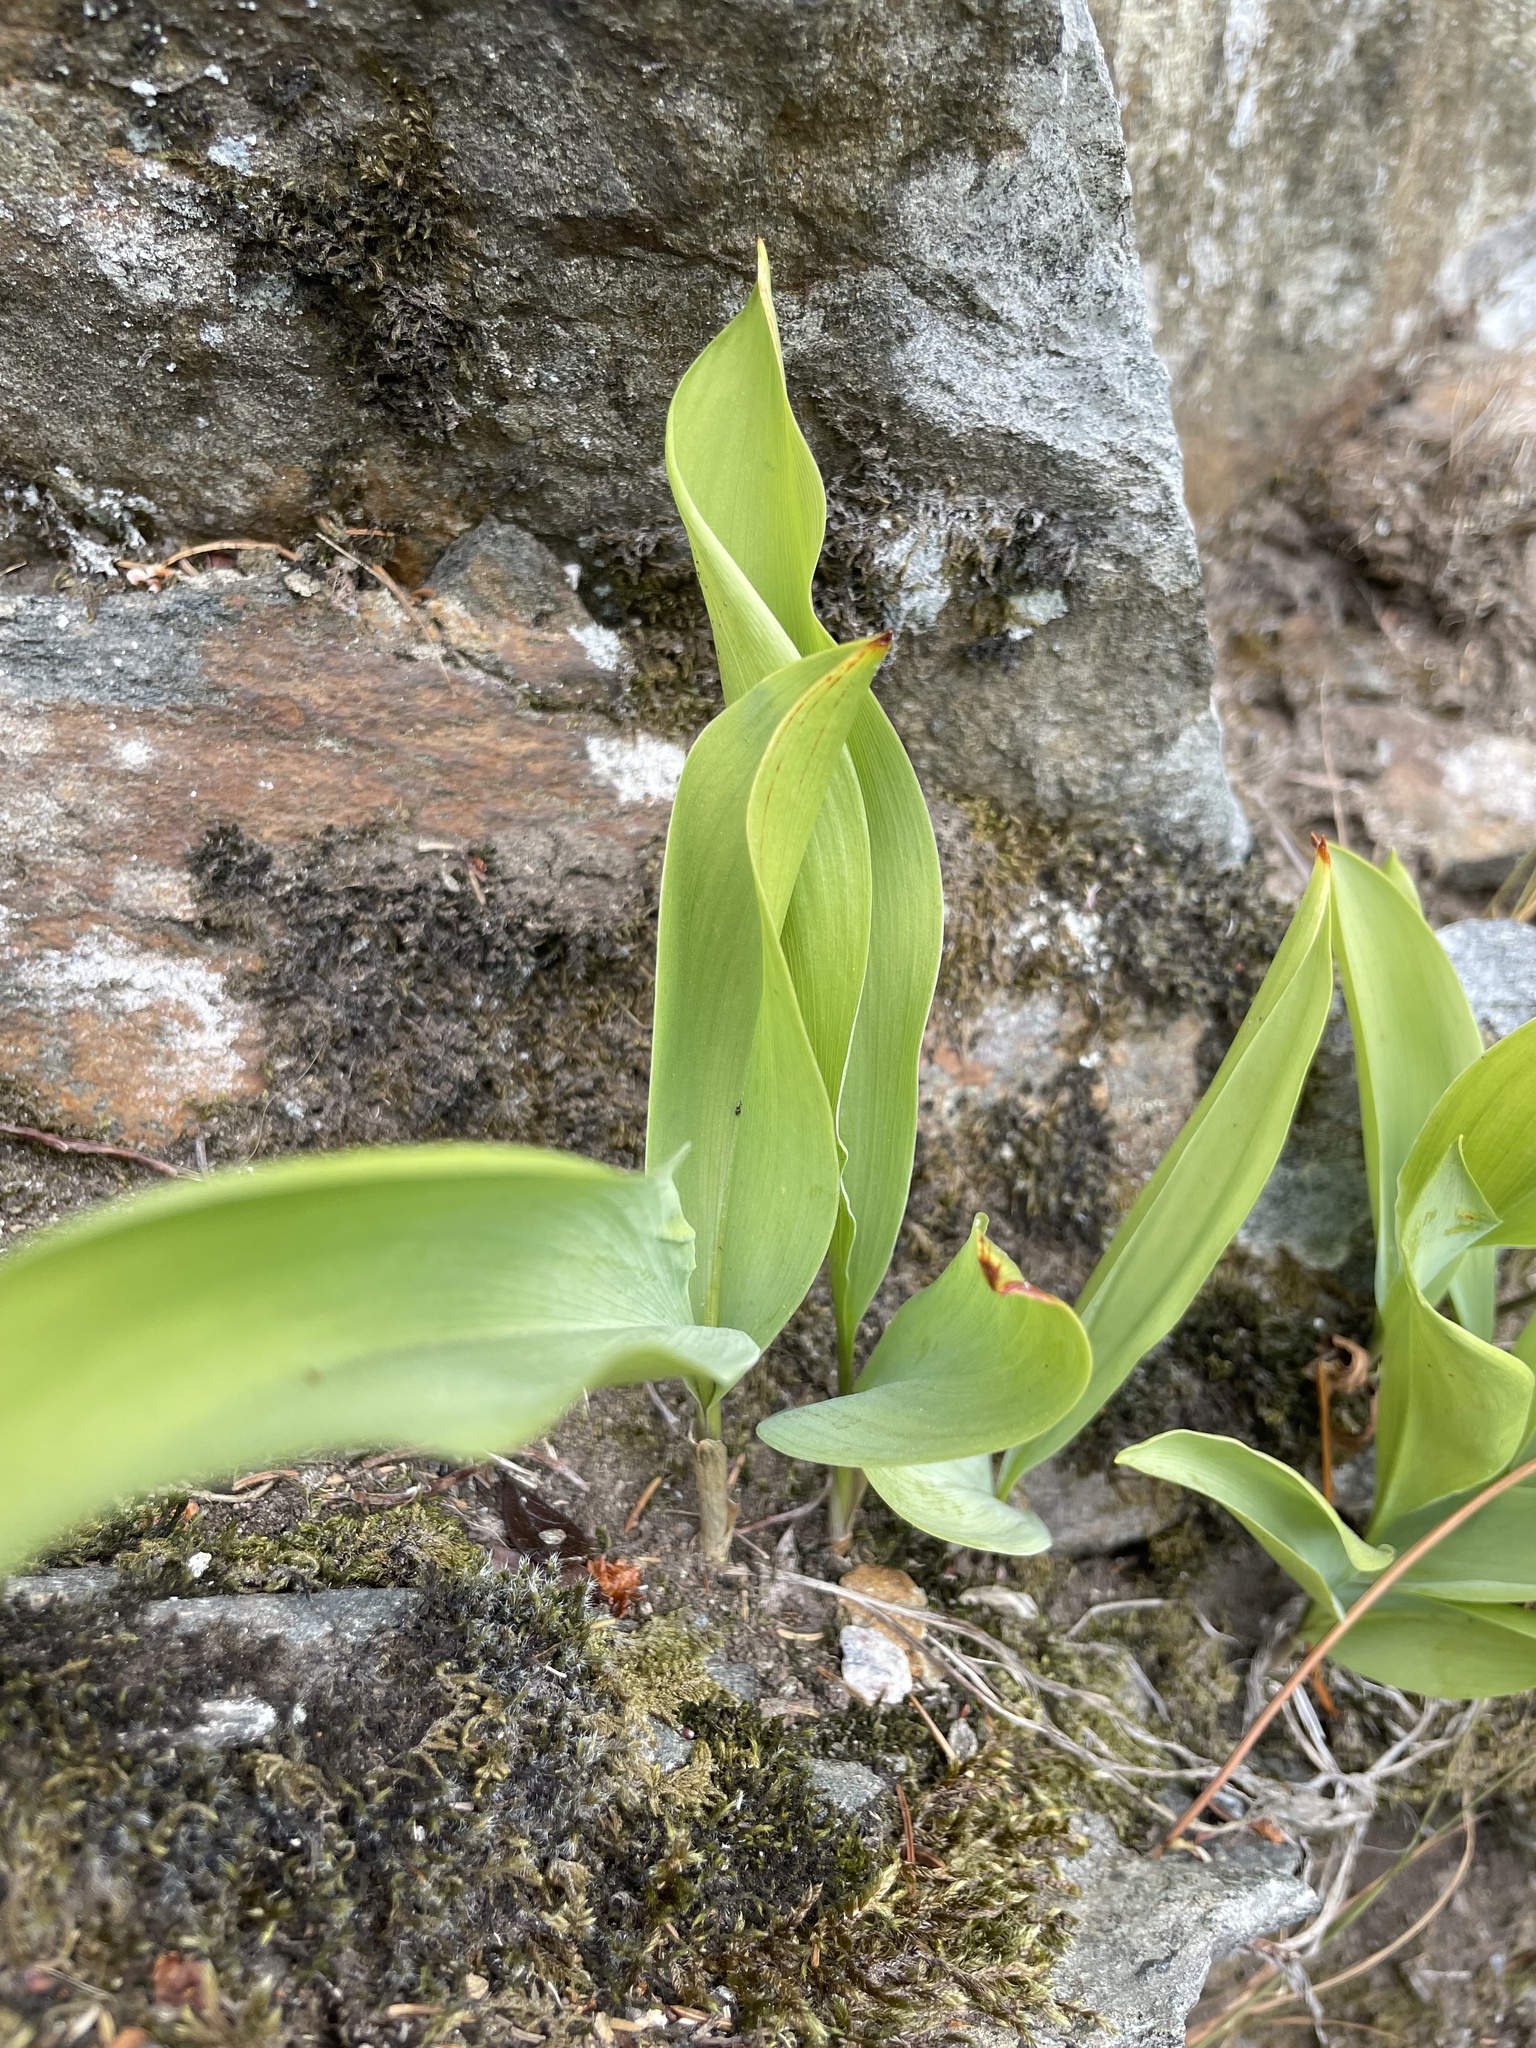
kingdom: Plantae
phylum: Tracheophyta
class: Liliopsida
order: Asparagales
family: Asparagaceae
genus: Convallaria
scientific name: Convallaria majalis
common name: Lily-of-the-valley
